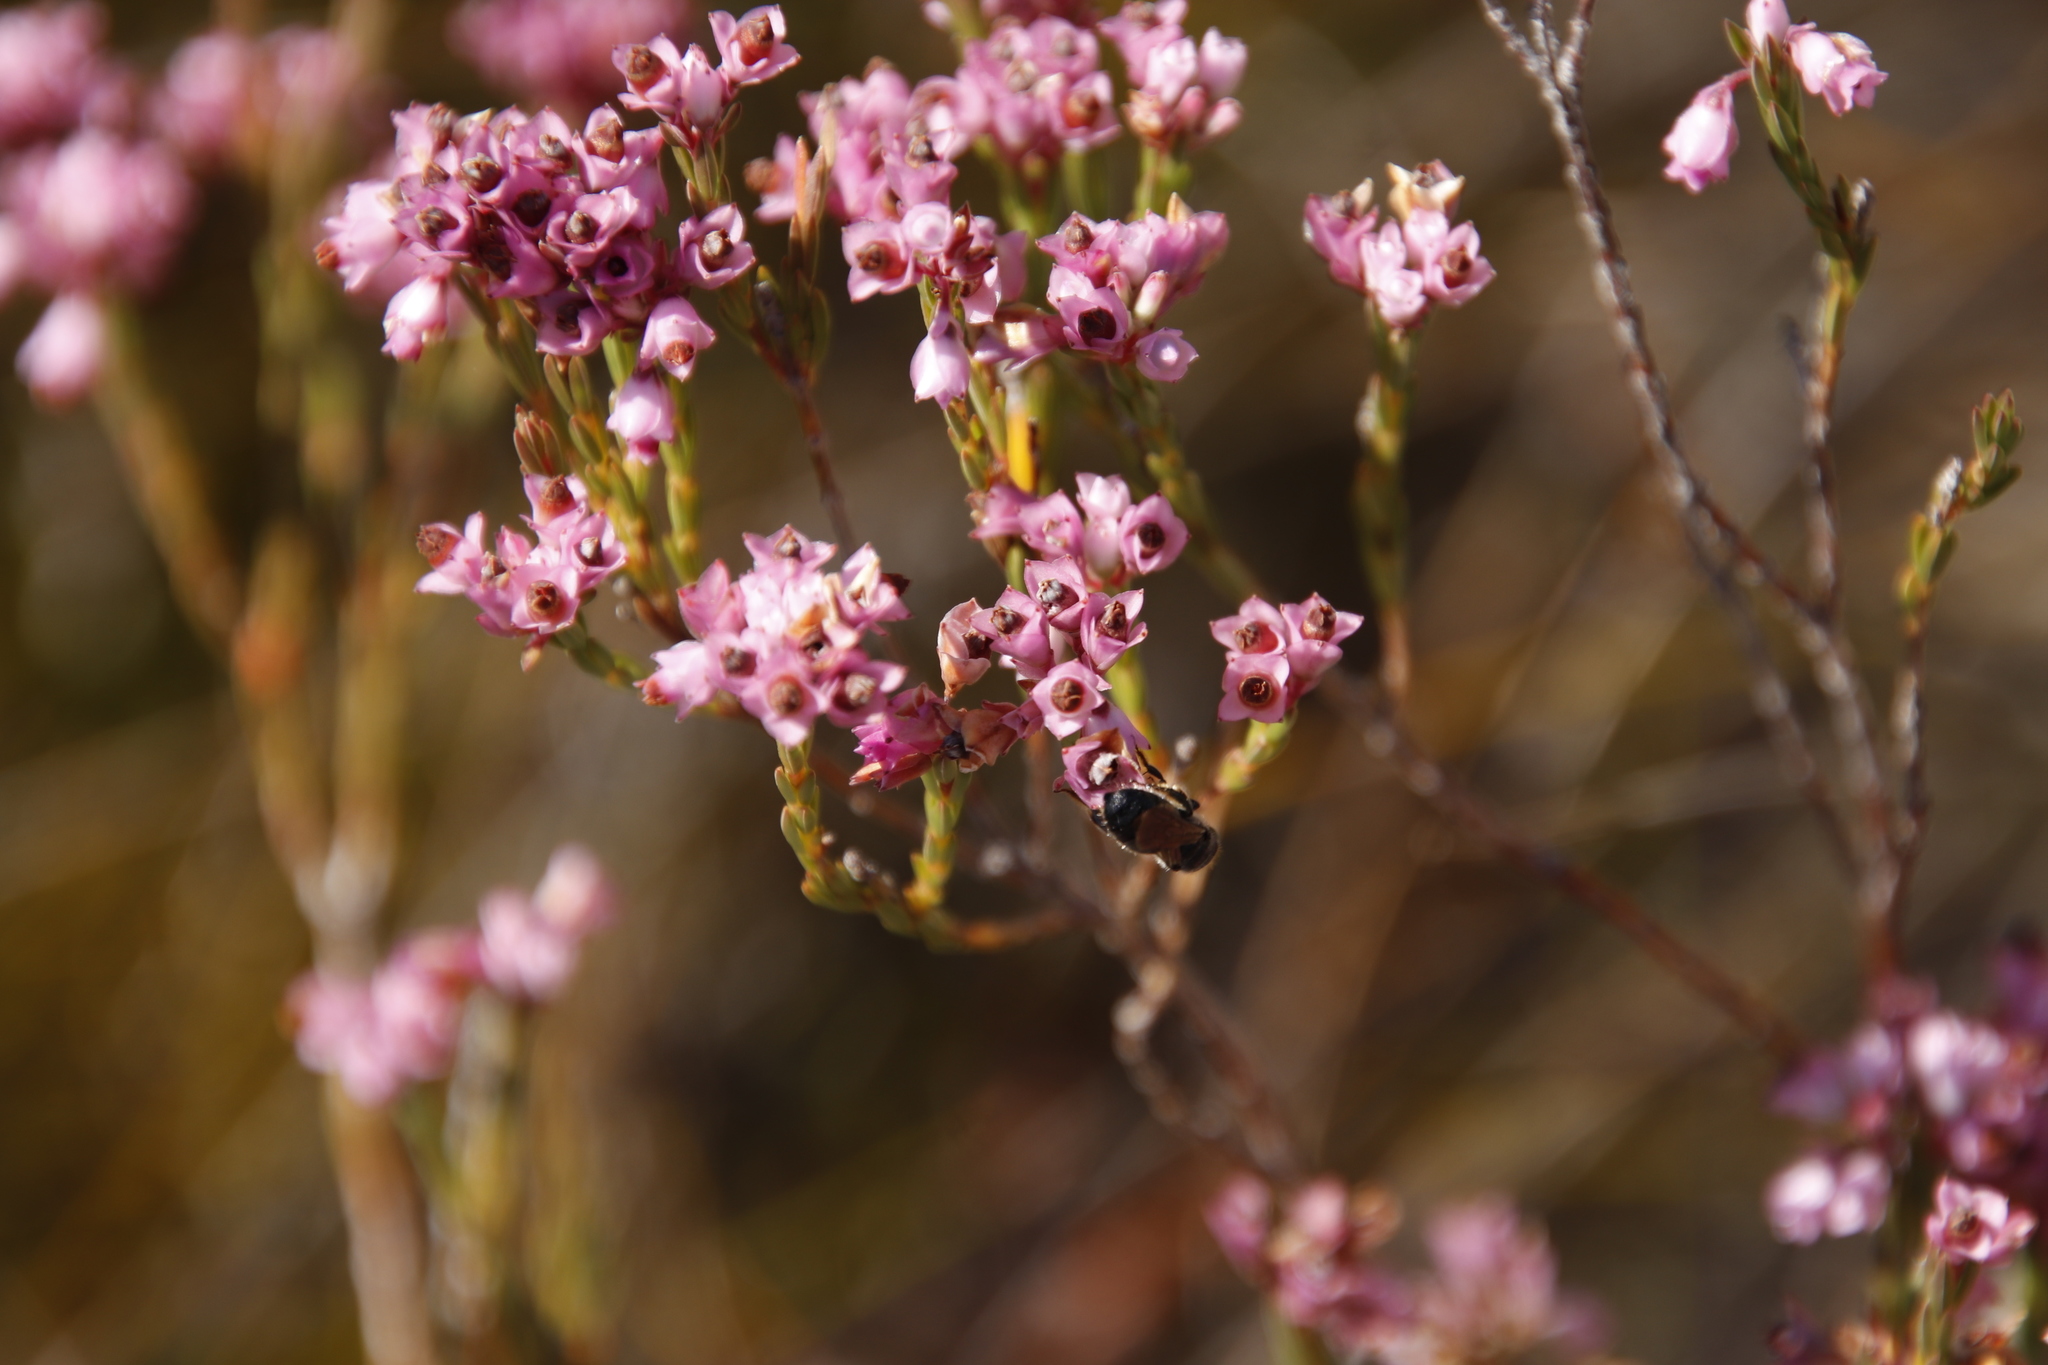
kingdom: Plantae
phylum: Tracheophyta
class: Magnoliopsida
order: Ericales
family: Ericaceae
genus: Erica
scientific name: Erica plumigera
